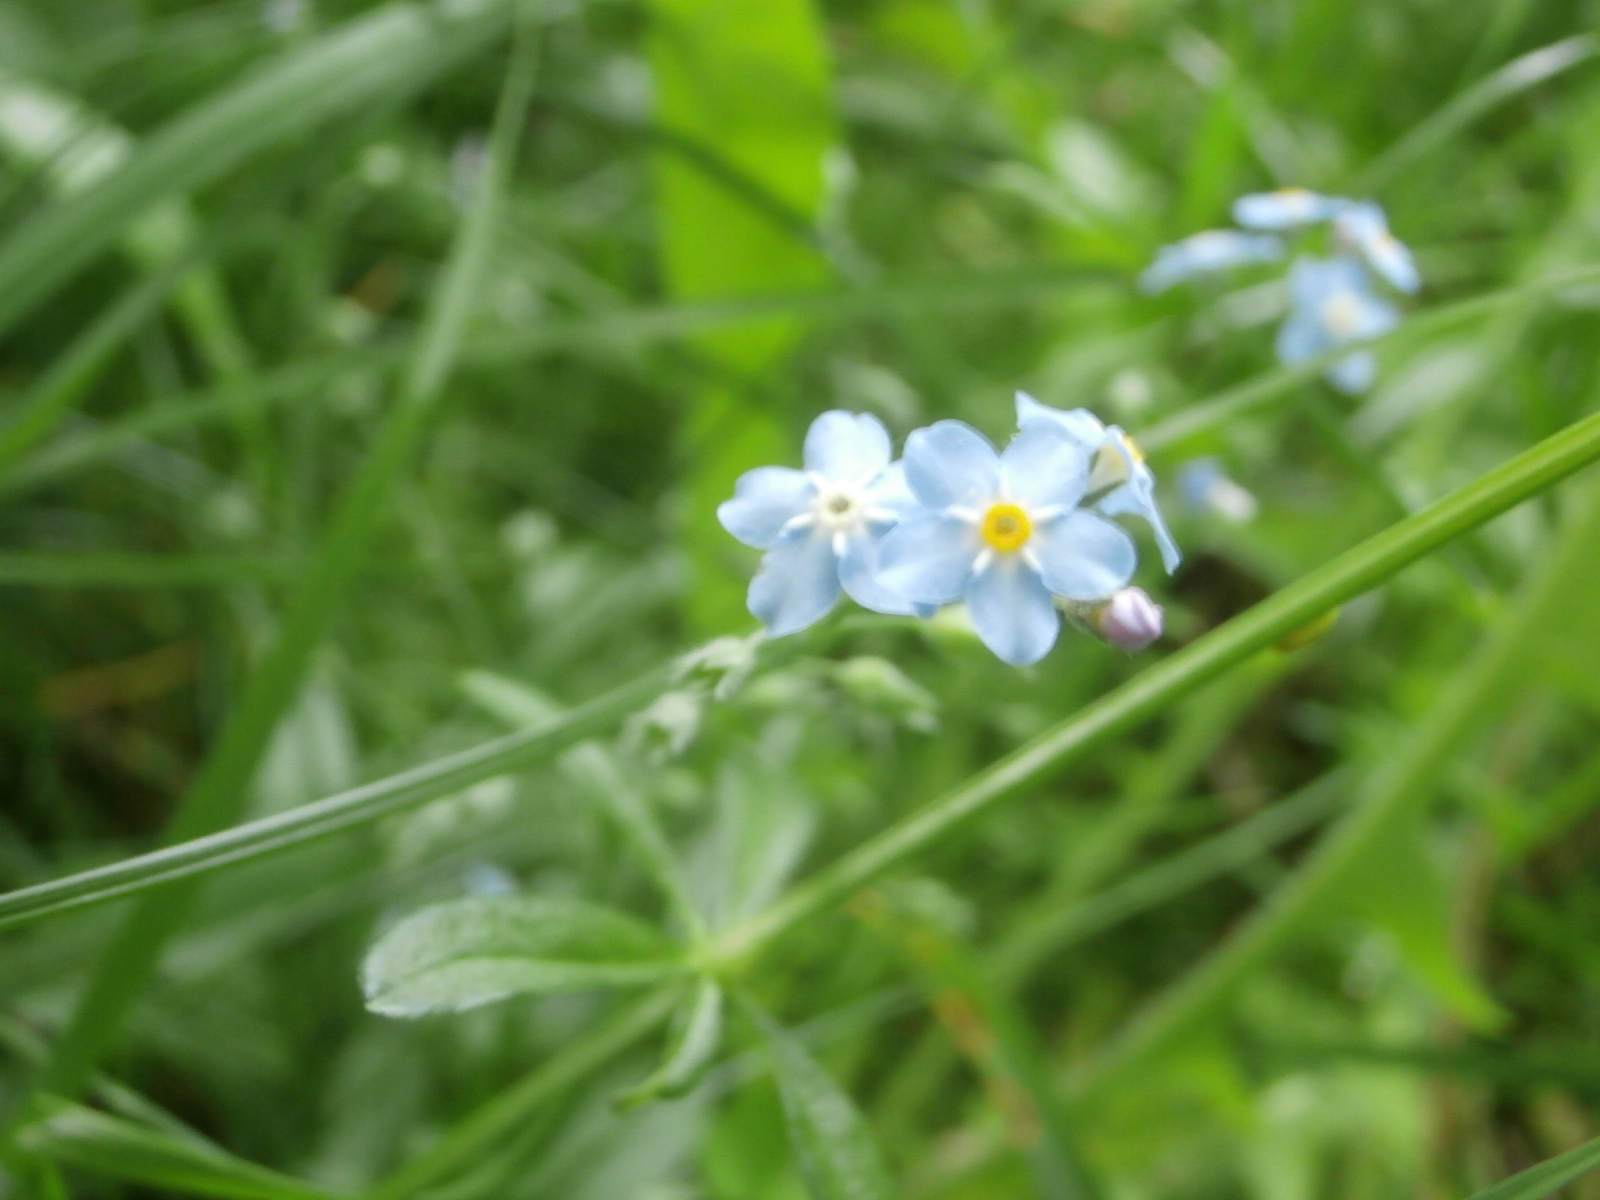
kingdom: Plantae
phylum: Tracheophyta
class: Magnoliopsida
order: Boraginales
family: Boraginaceae
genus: Myosotis
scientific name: Myosotis sylvatica
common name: Wood forget-me-not
